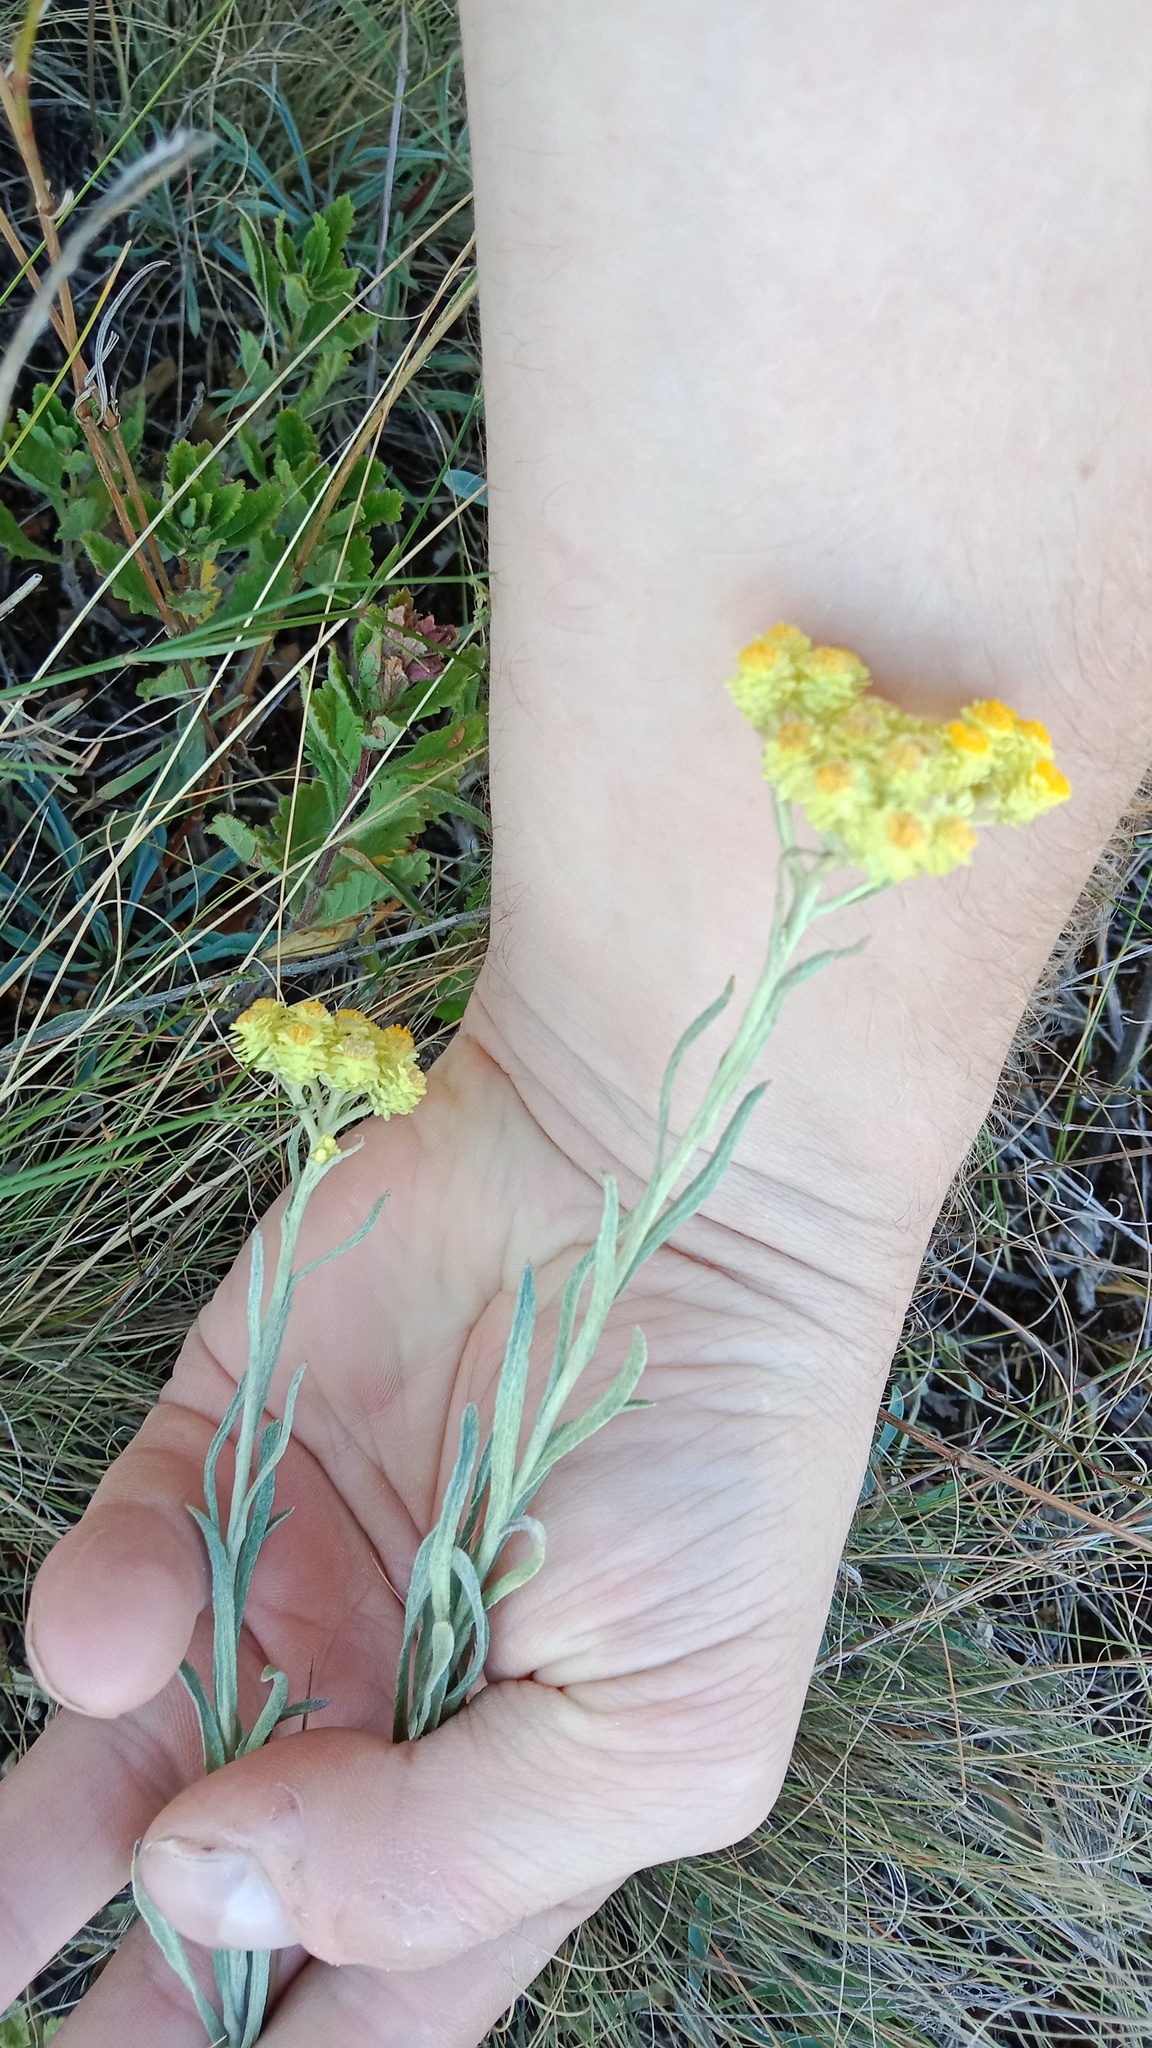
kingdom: Plantae
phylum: Tracheophyta
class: Magnoliopsida
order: Asterales
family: Asteraceae
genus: Helichrysum
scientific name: Helichrysum arenarium
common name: Strawflower
